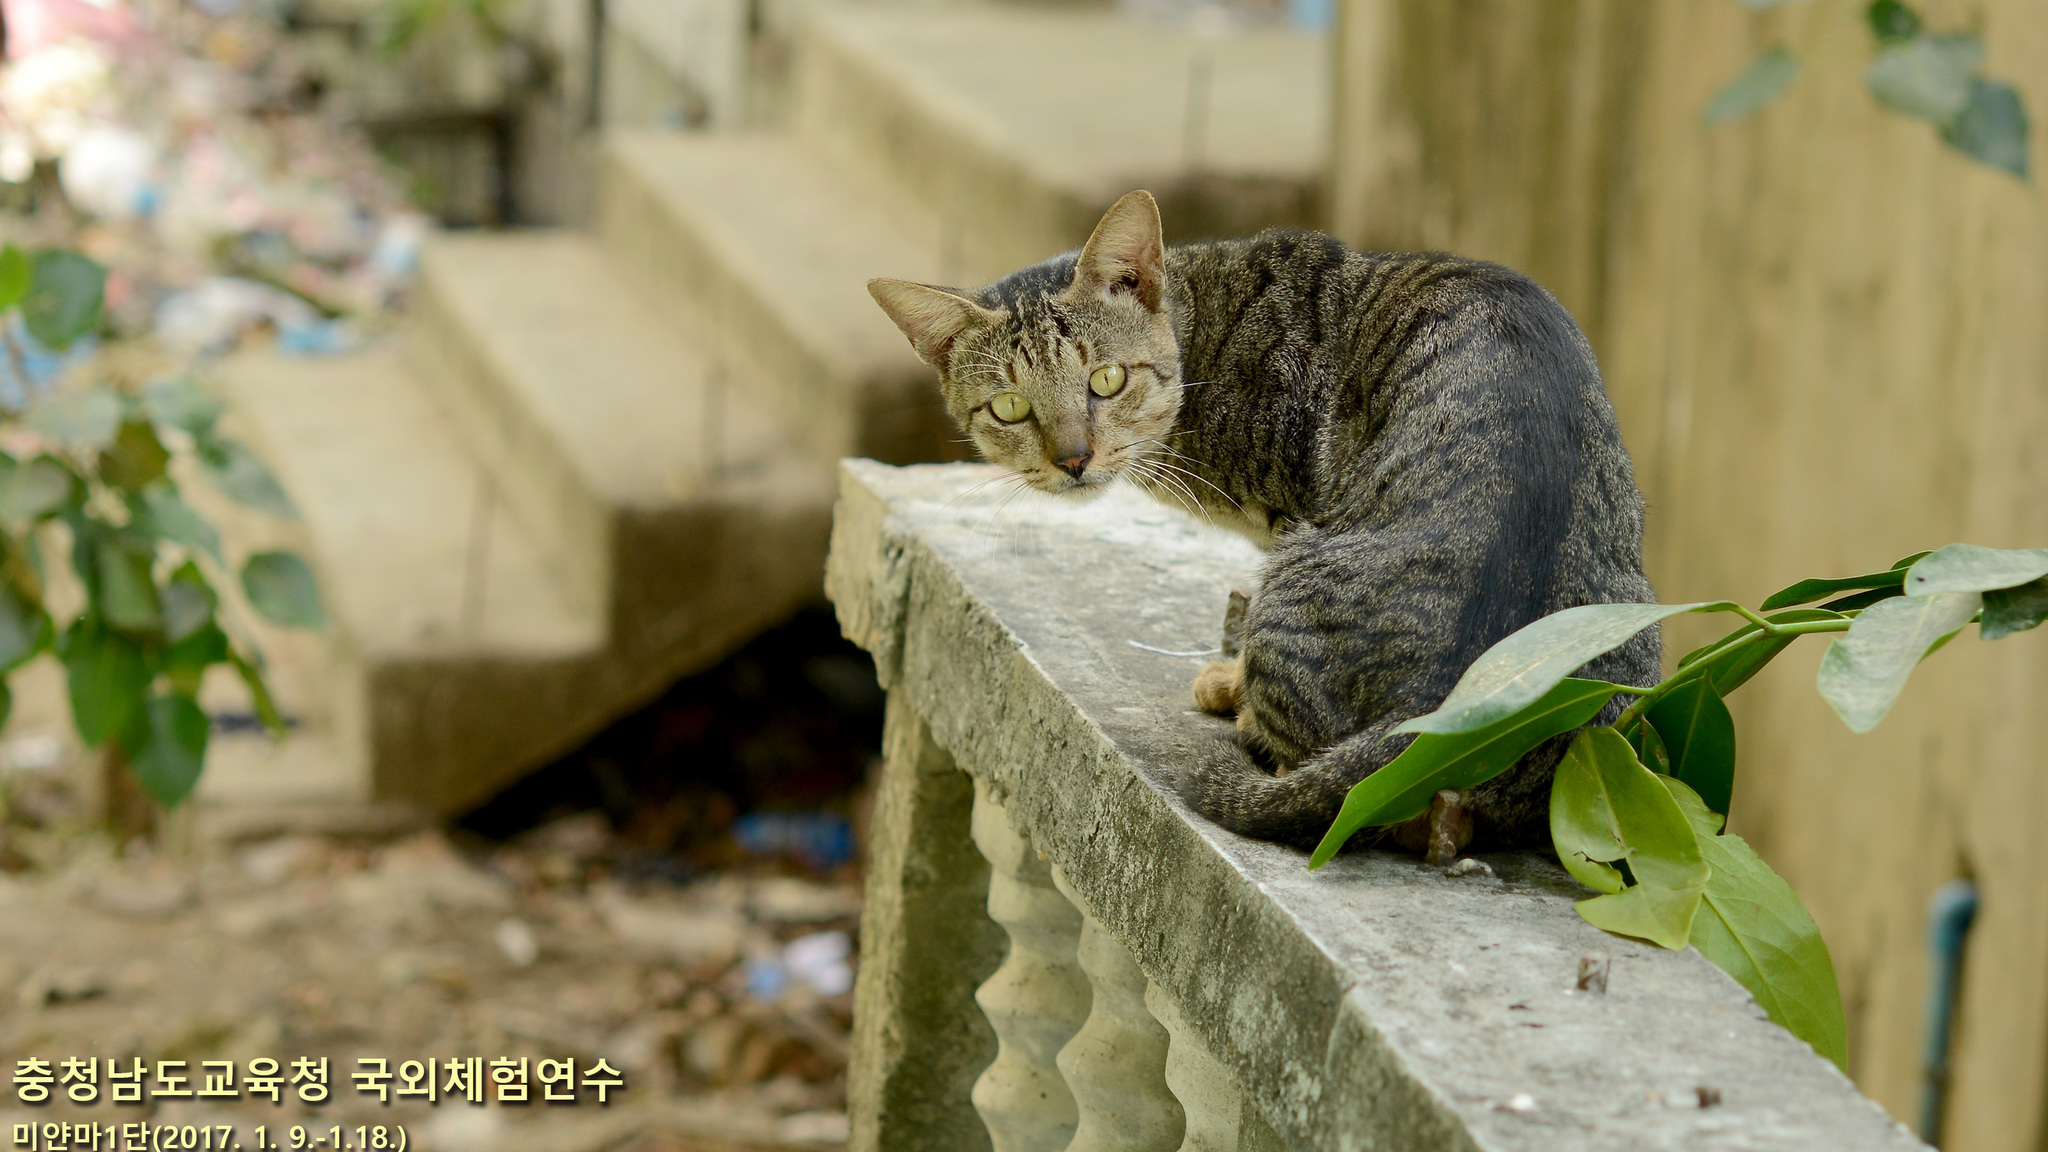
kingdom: Animalia
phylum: Chordata
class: Mammalia
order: Carnivora
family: Felidae
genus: Felis
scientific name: Felis catus
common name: Domestic cat
